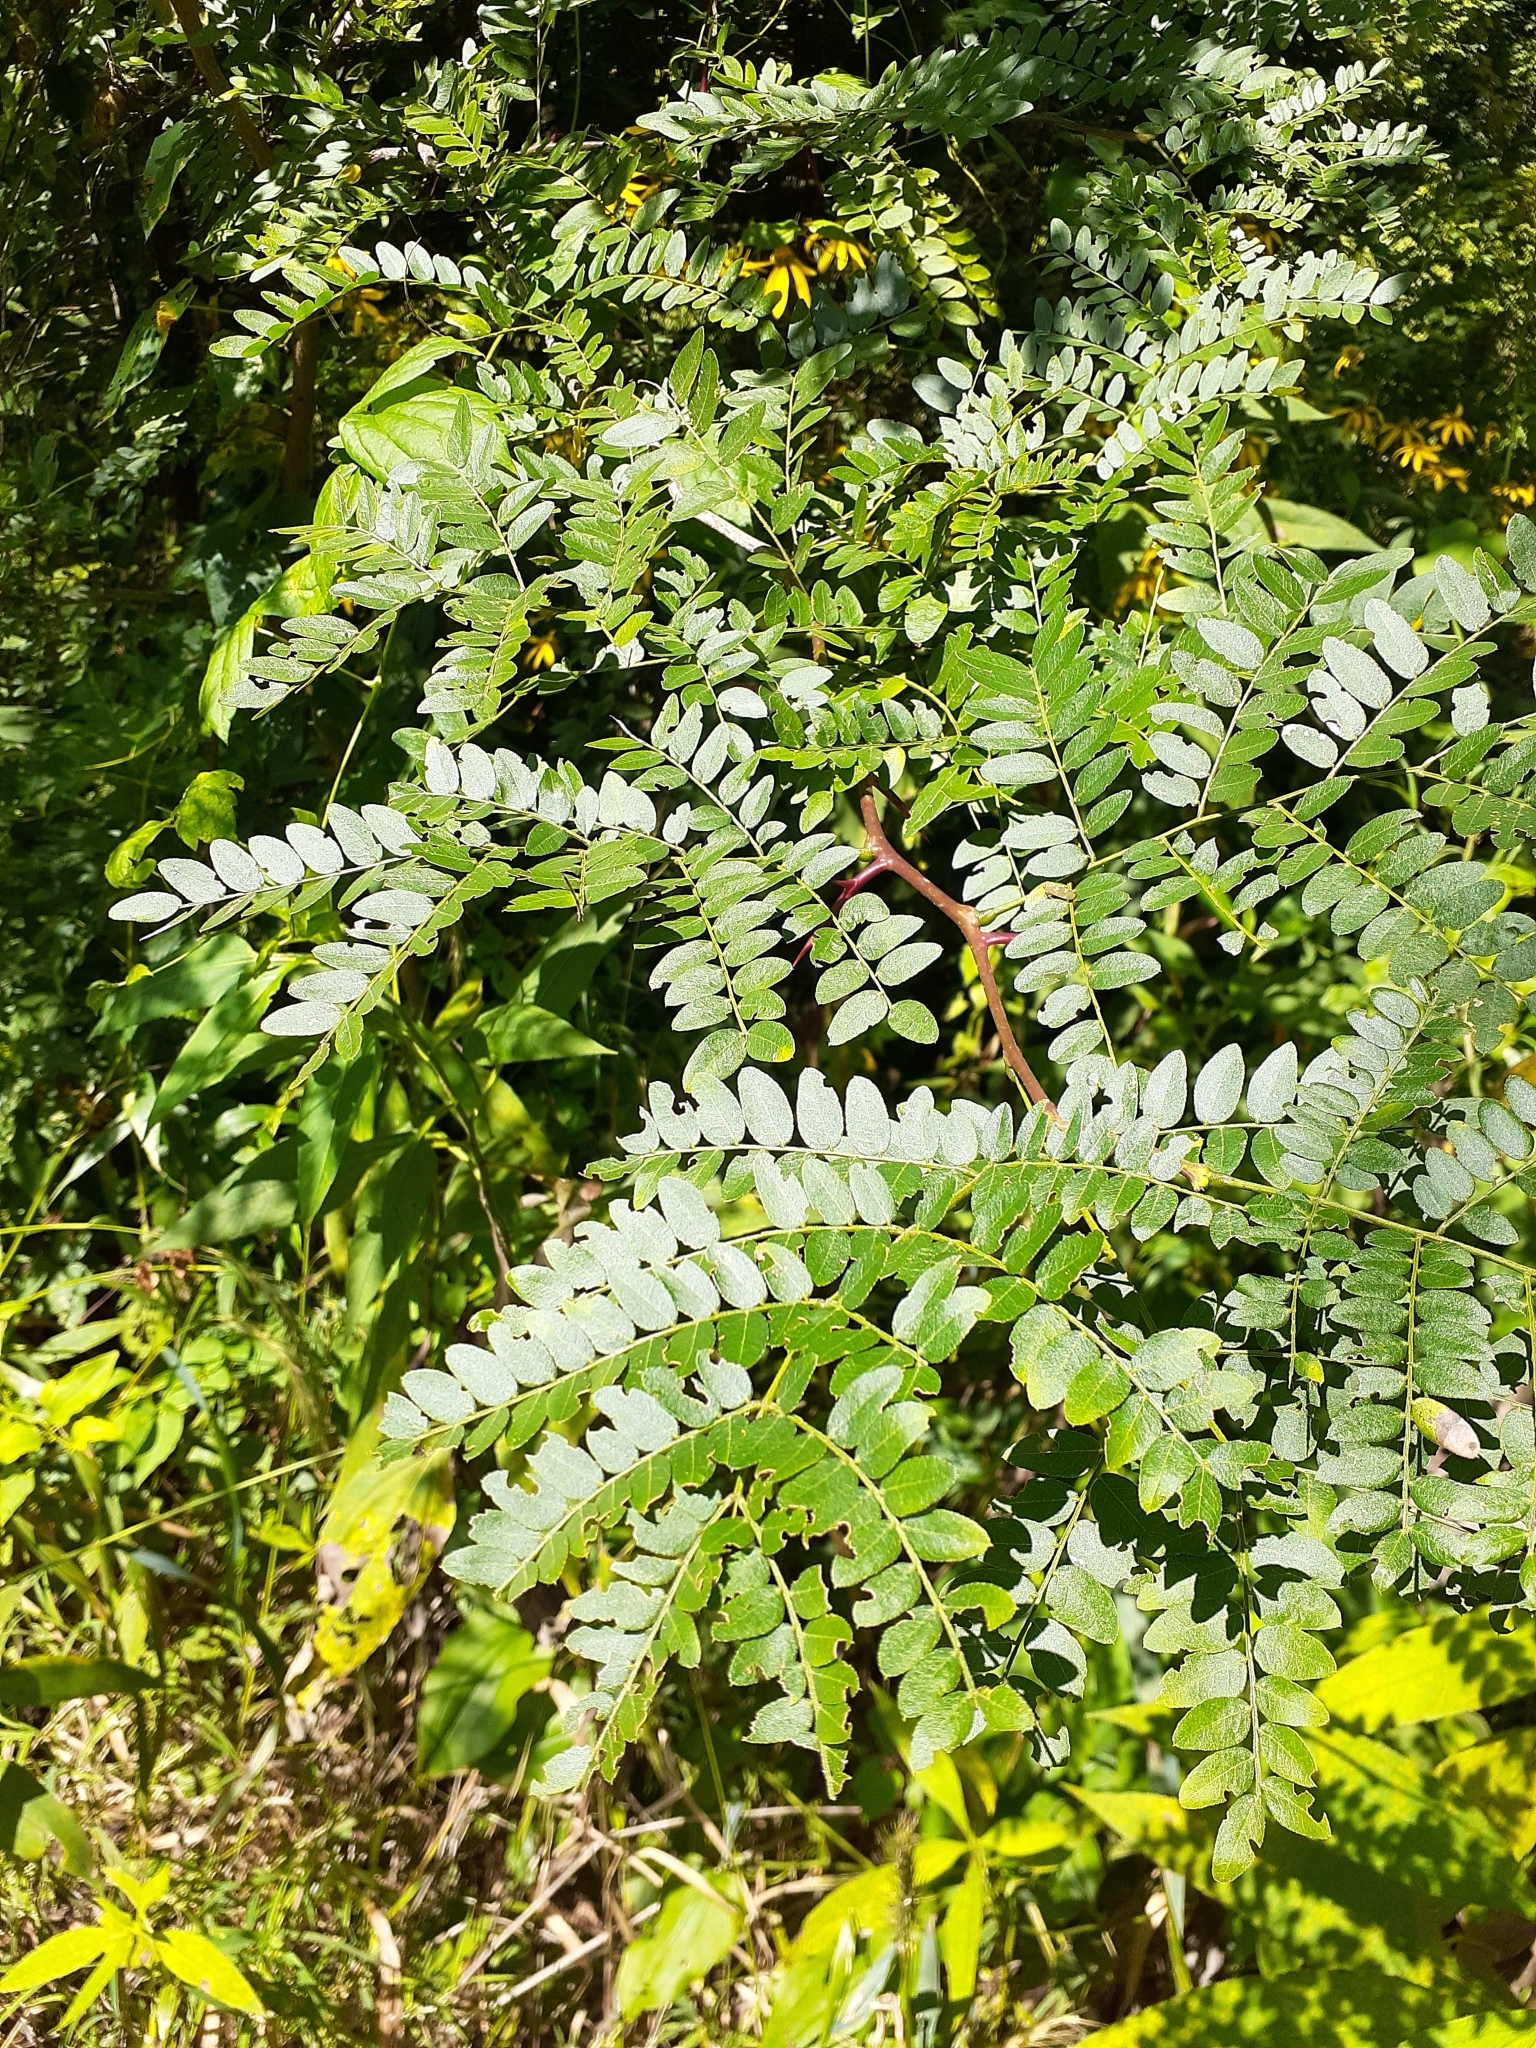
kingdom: Plantae
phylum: Tracheophyta
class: Magnoliopsida
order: Fabales
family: Fabaceae
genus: Gleditsia
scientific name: Gleditsia triacanthos
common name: Common honeylocust
